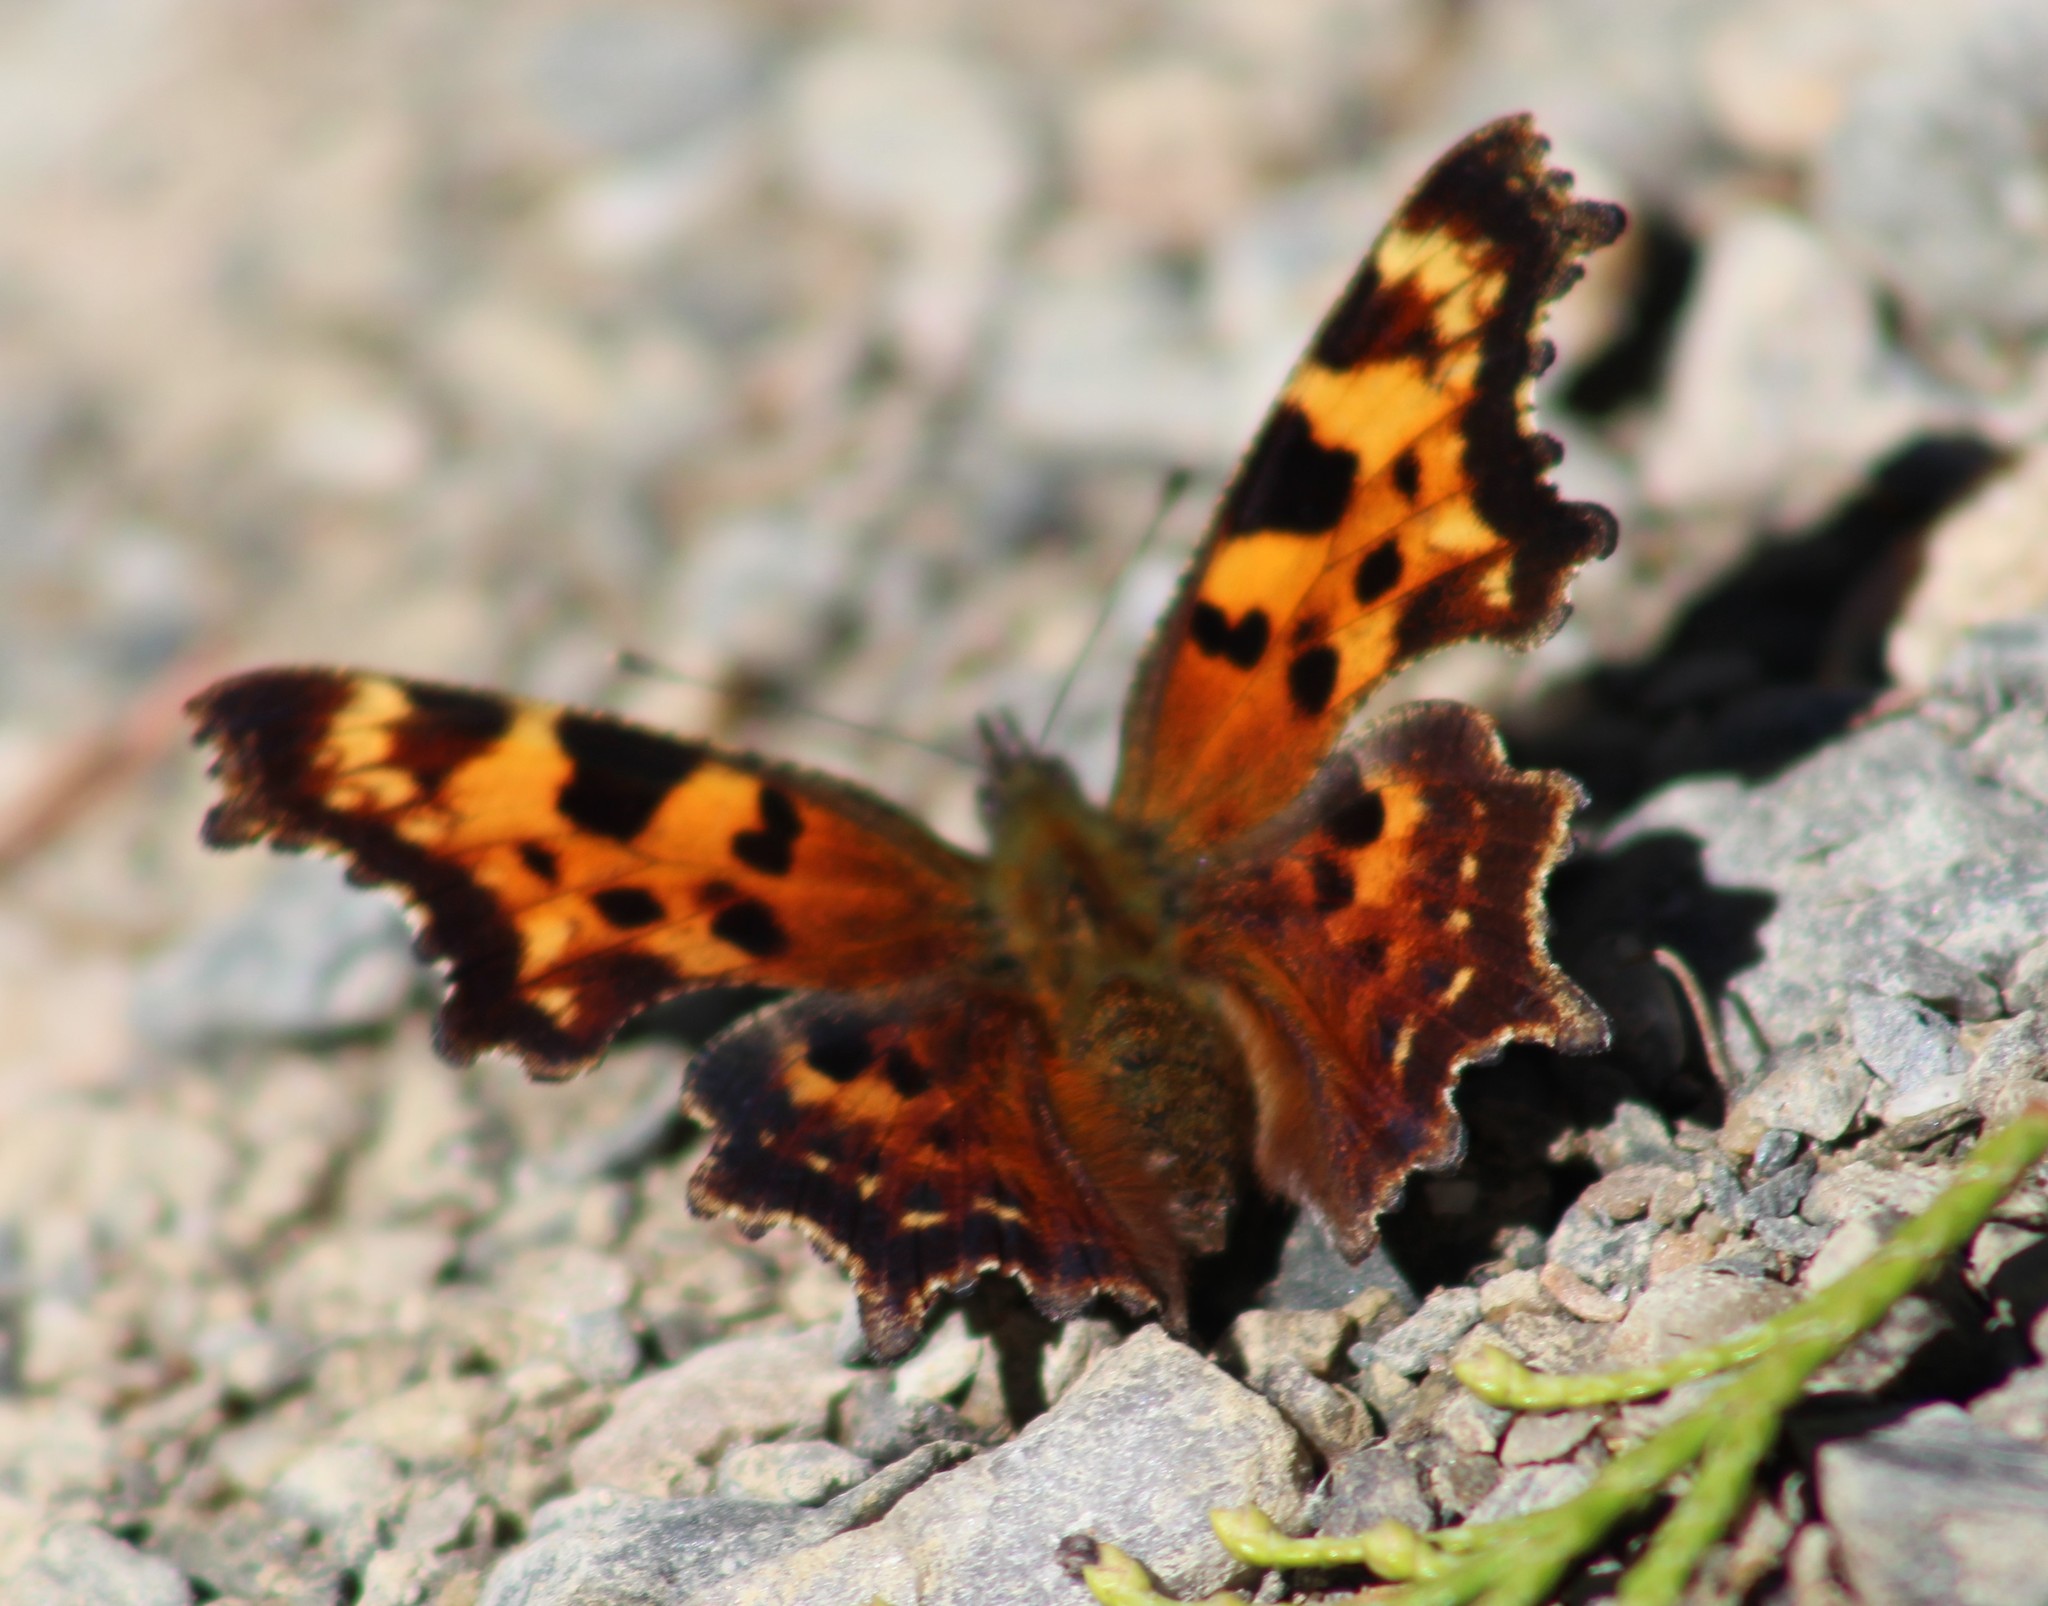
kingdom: Animalia
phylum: Arthropoda
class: Insecta
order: Lepidoptera
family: Nymphalidae
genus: Polygonia
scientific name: Polygonia faunus
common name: Green comma
